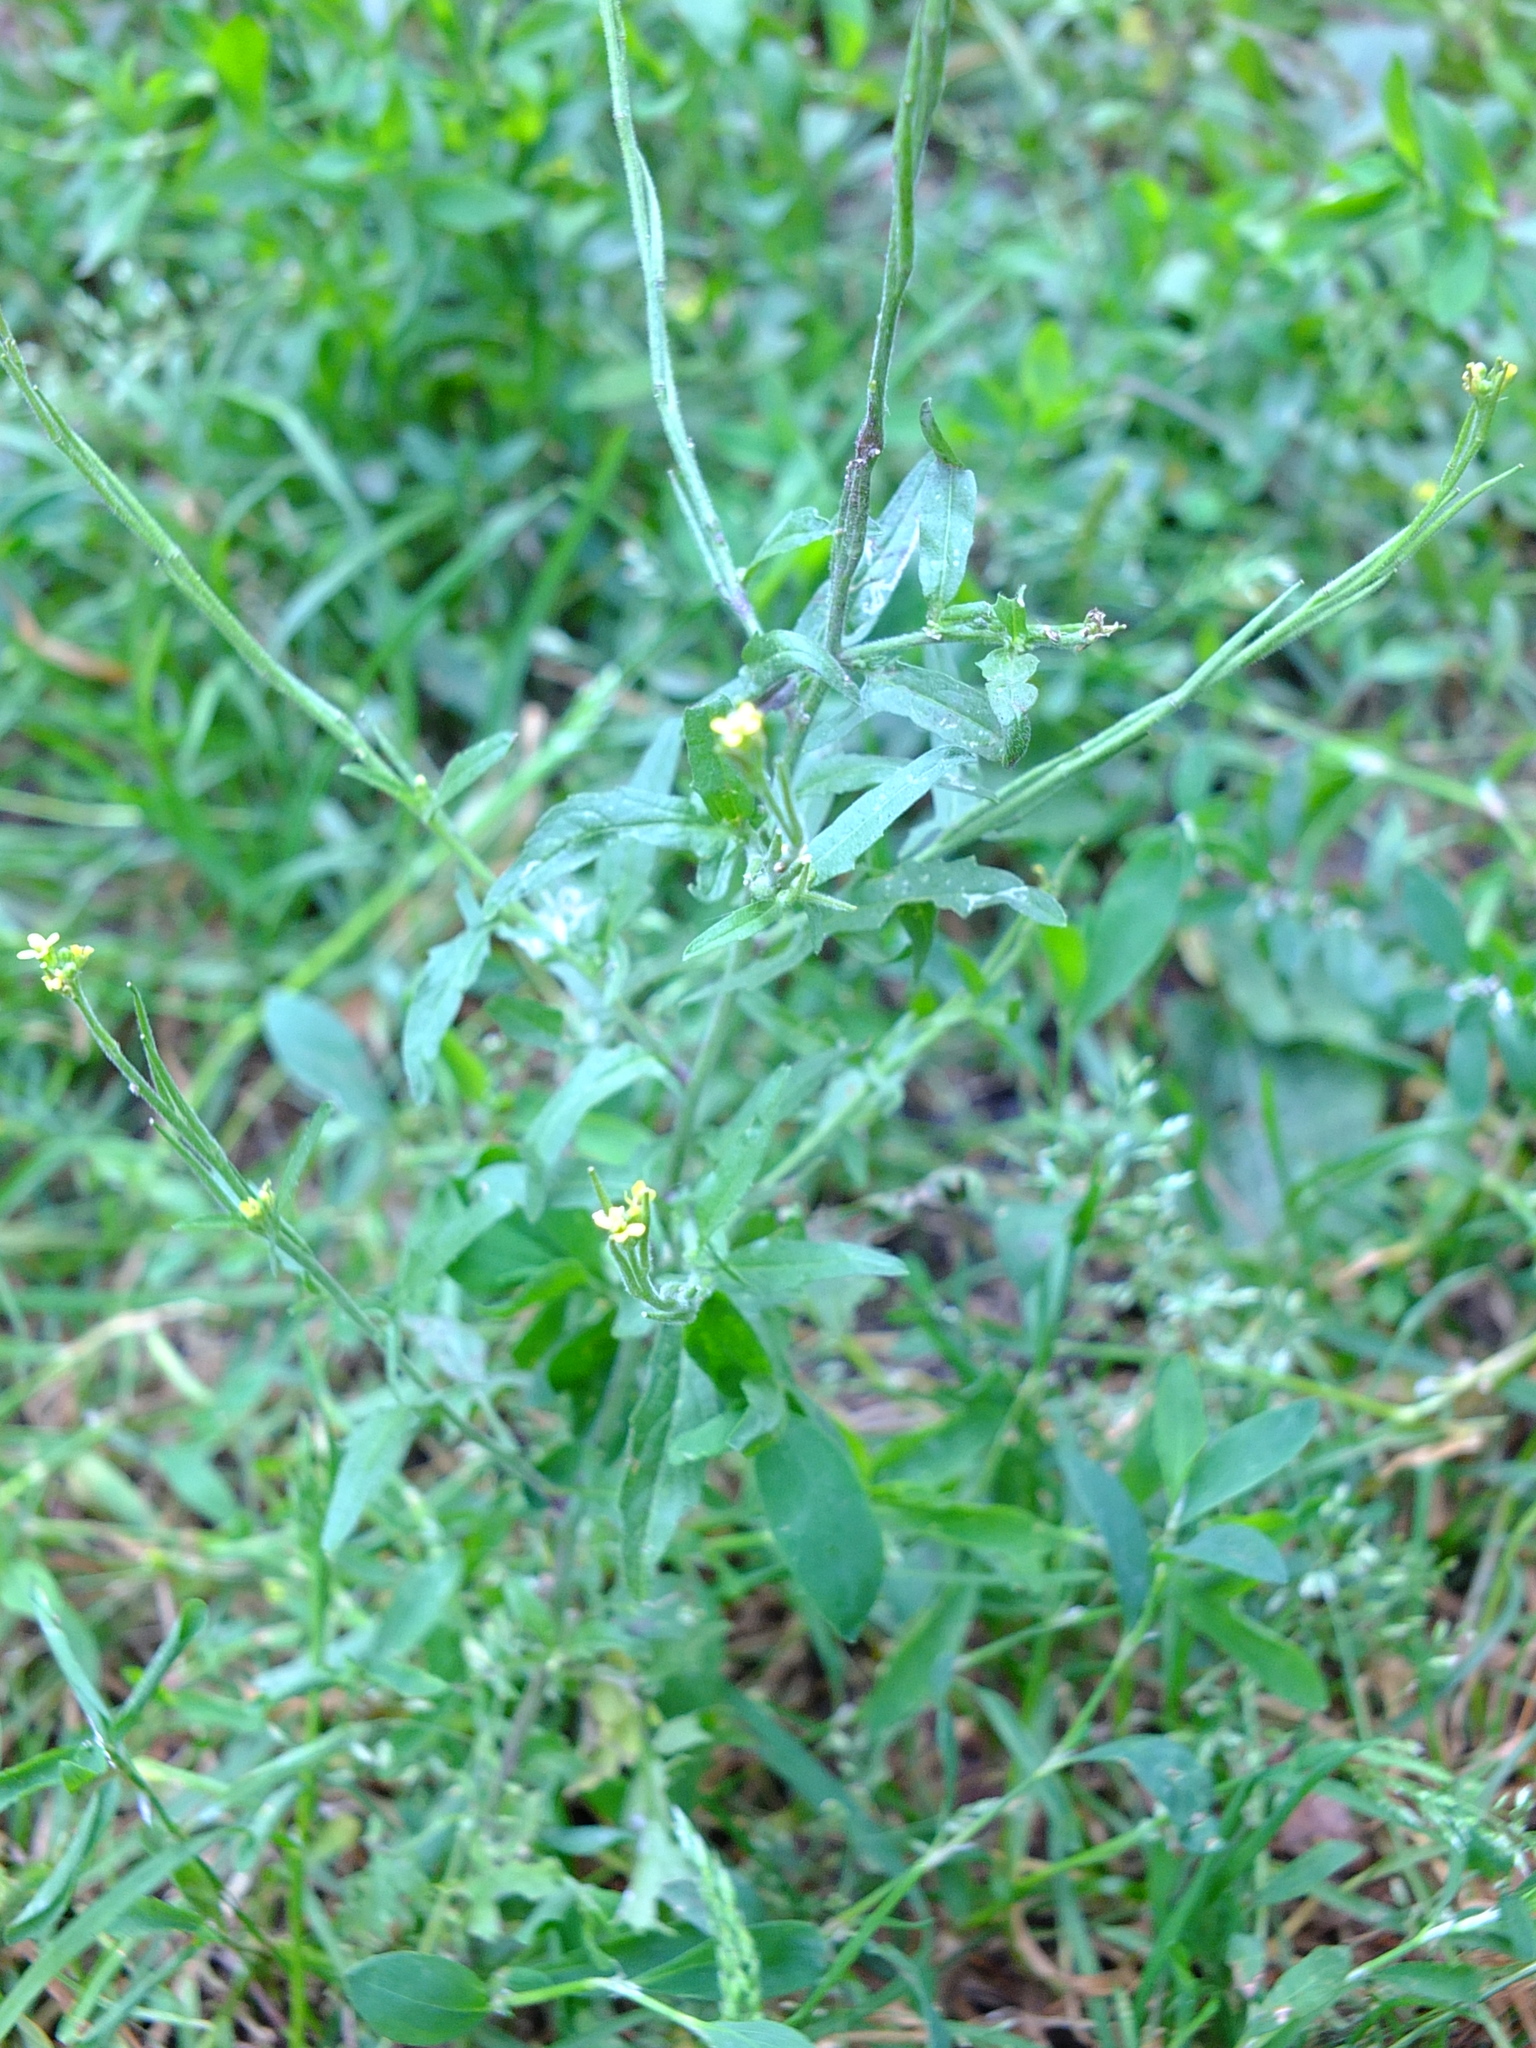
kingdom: Plantae
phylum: Tracheophyta
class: Magnoliopsida
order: Brassicales
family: Brassicaceae
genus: Sisymbrium
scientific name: Sisymbrium officinale
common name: Hedge mustard
